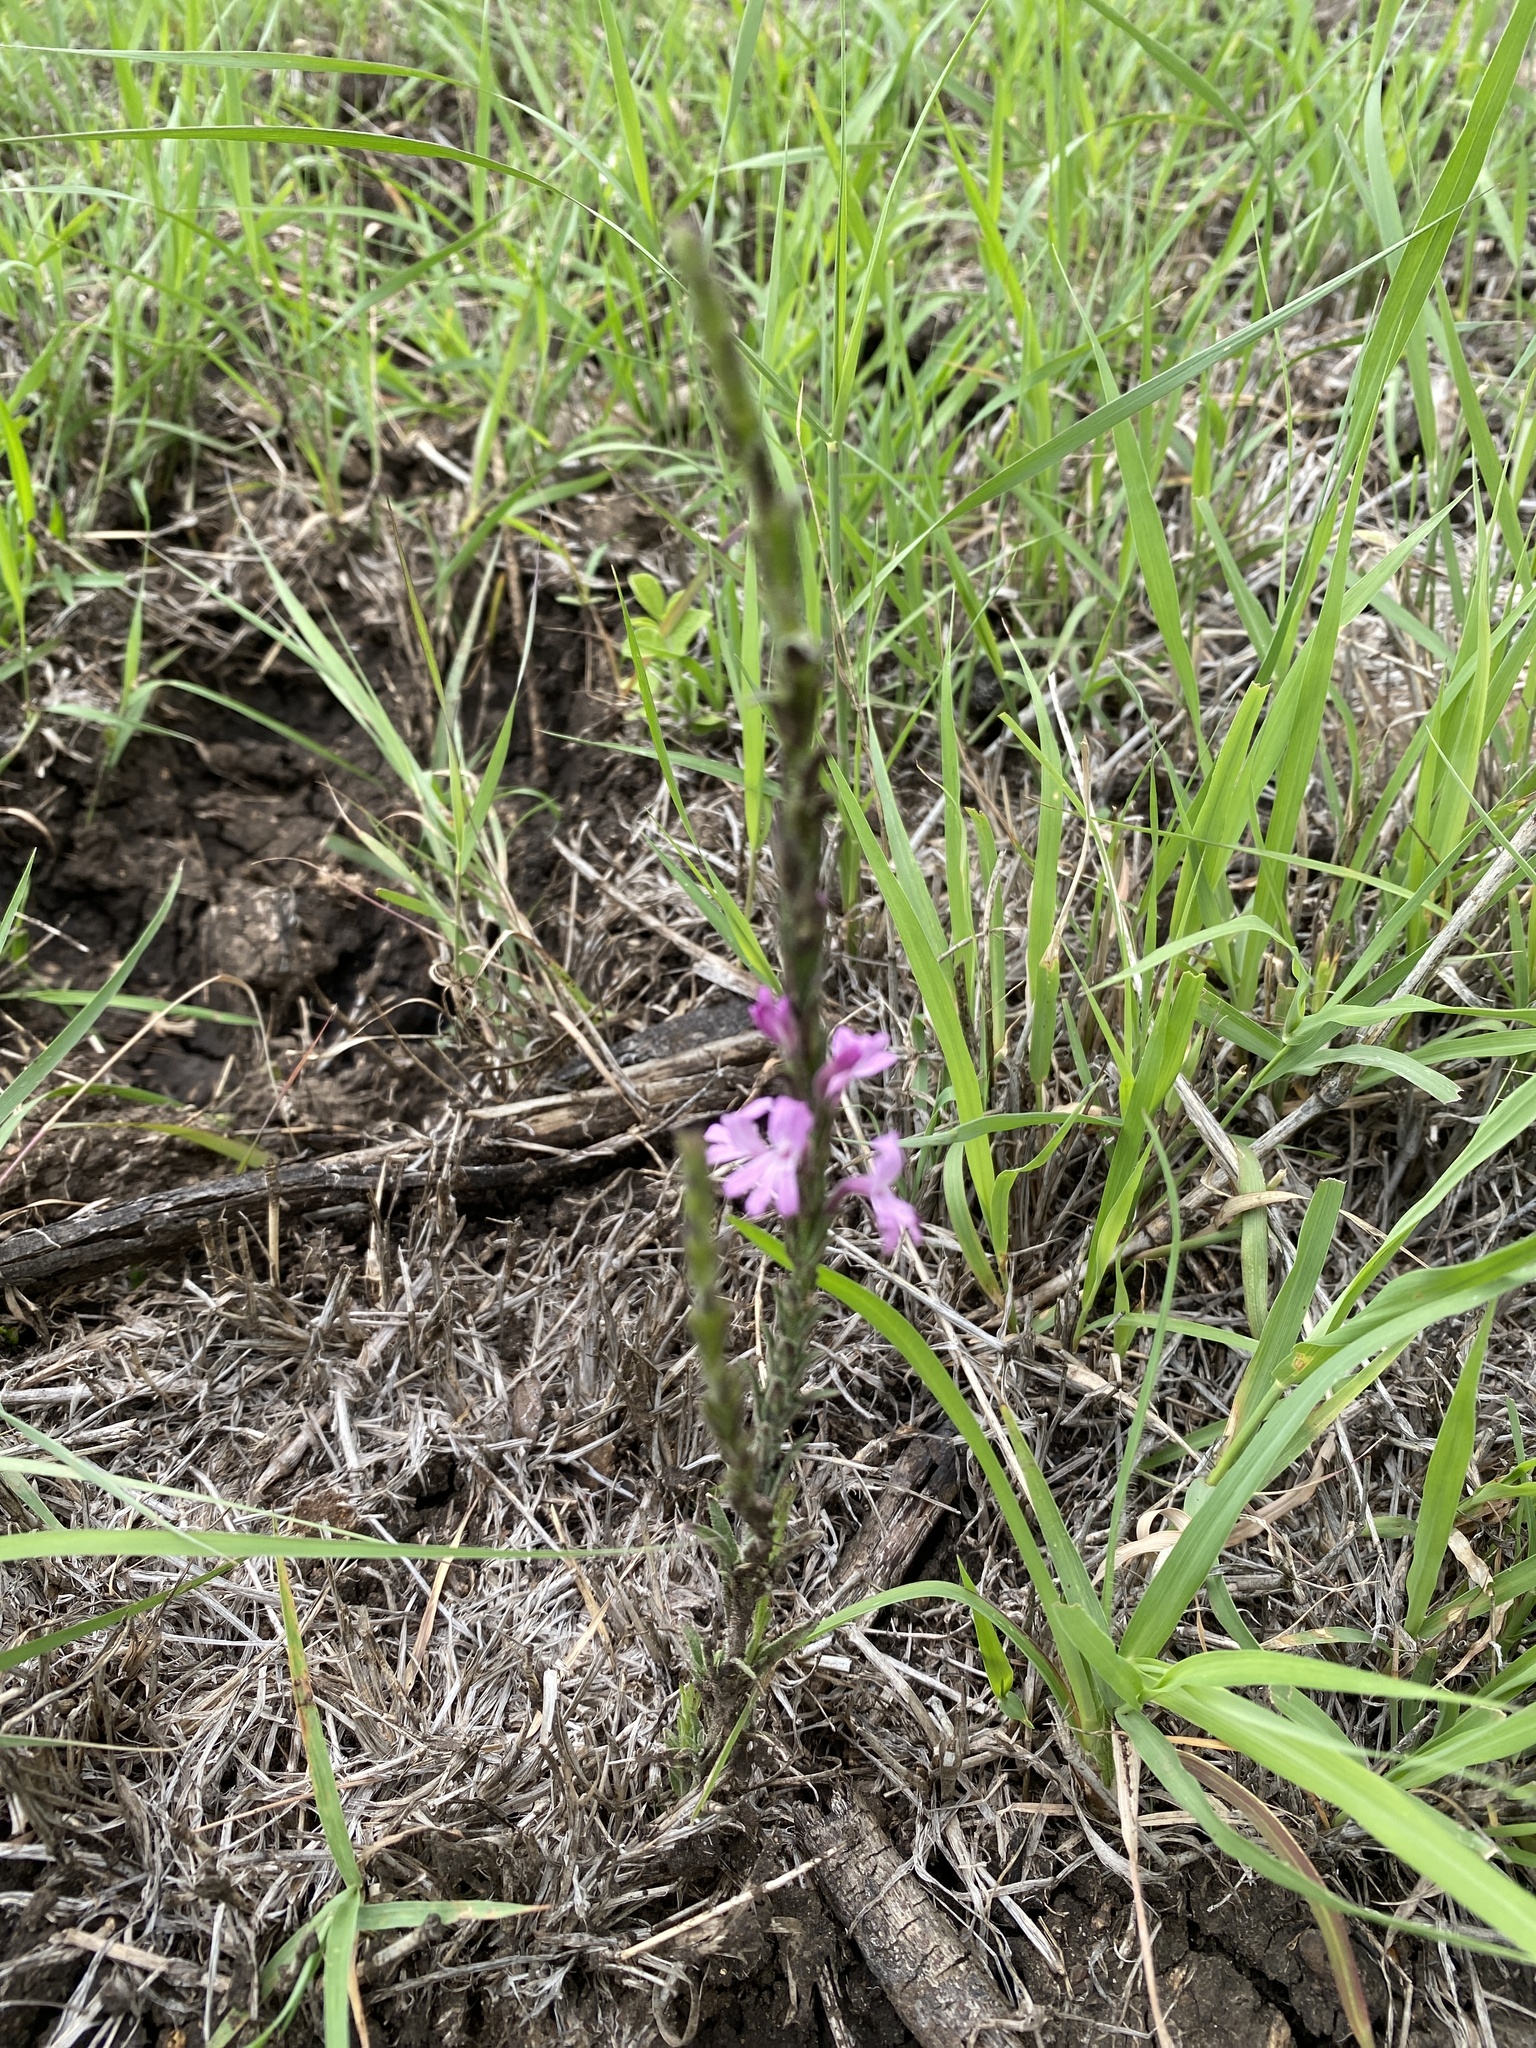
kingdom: Plantae
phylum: Tracheophyta
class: Magnoliopsida
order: Lamiales
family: Orobanchaceae
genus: Striga
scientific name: Striga bilabiata
